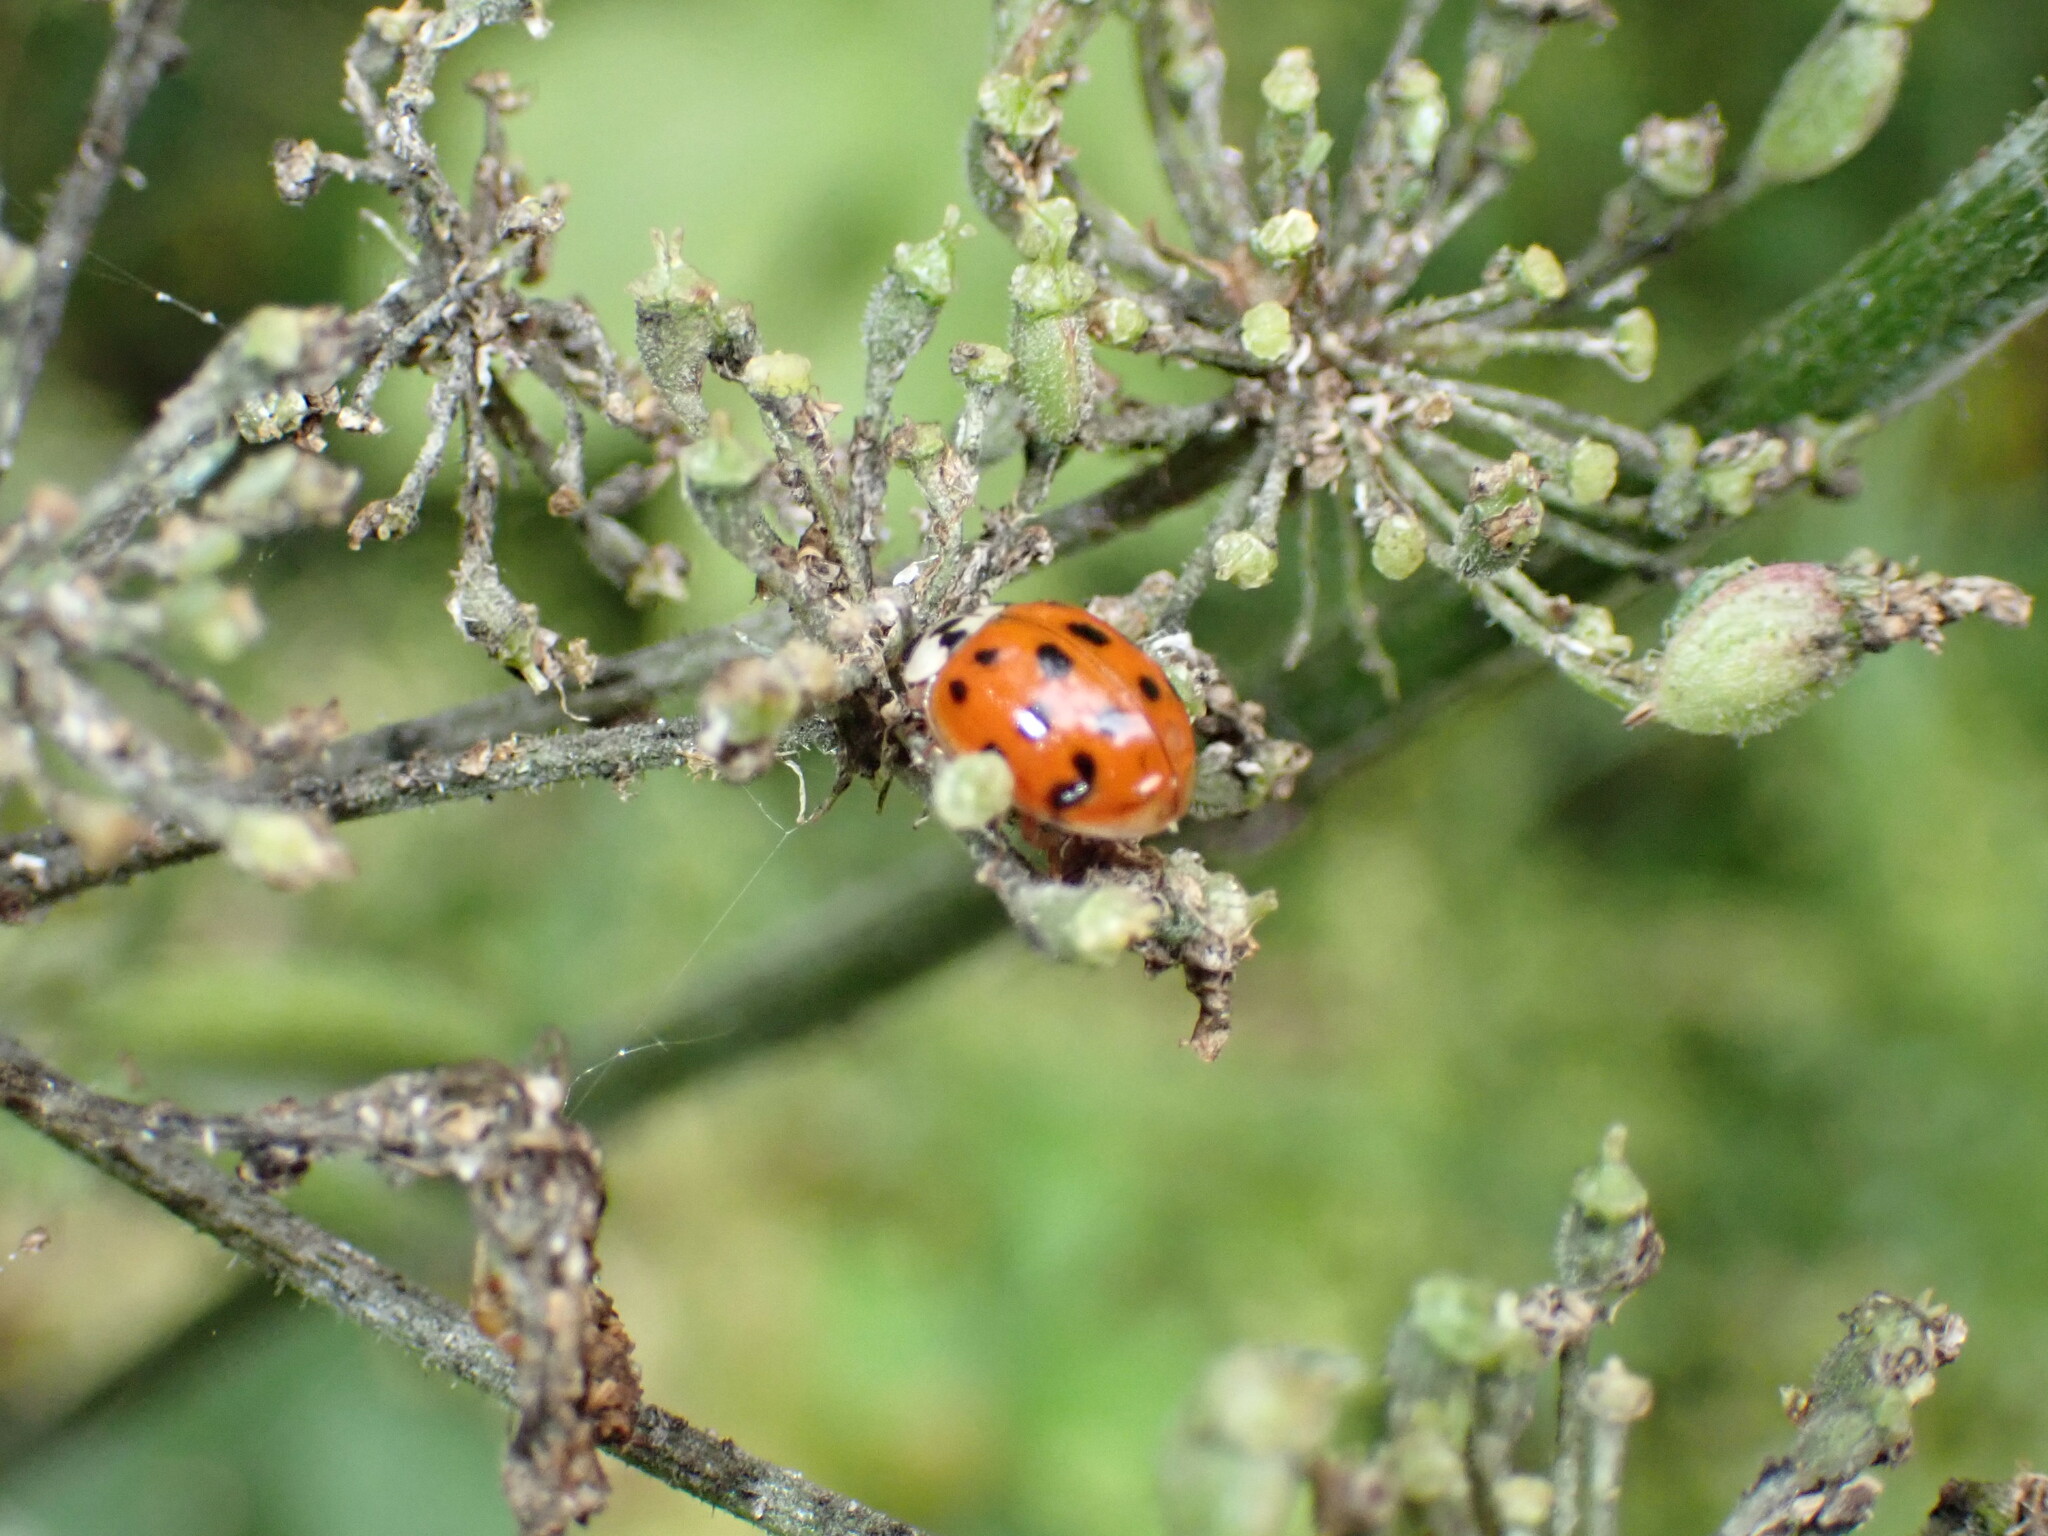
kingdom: Animalia
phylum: Arthropoda
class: Insecta
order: Coleoptera
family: Coccinellidae
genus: Harmonia
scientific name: Harmonia axyridis
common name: Harlequin ladybird
